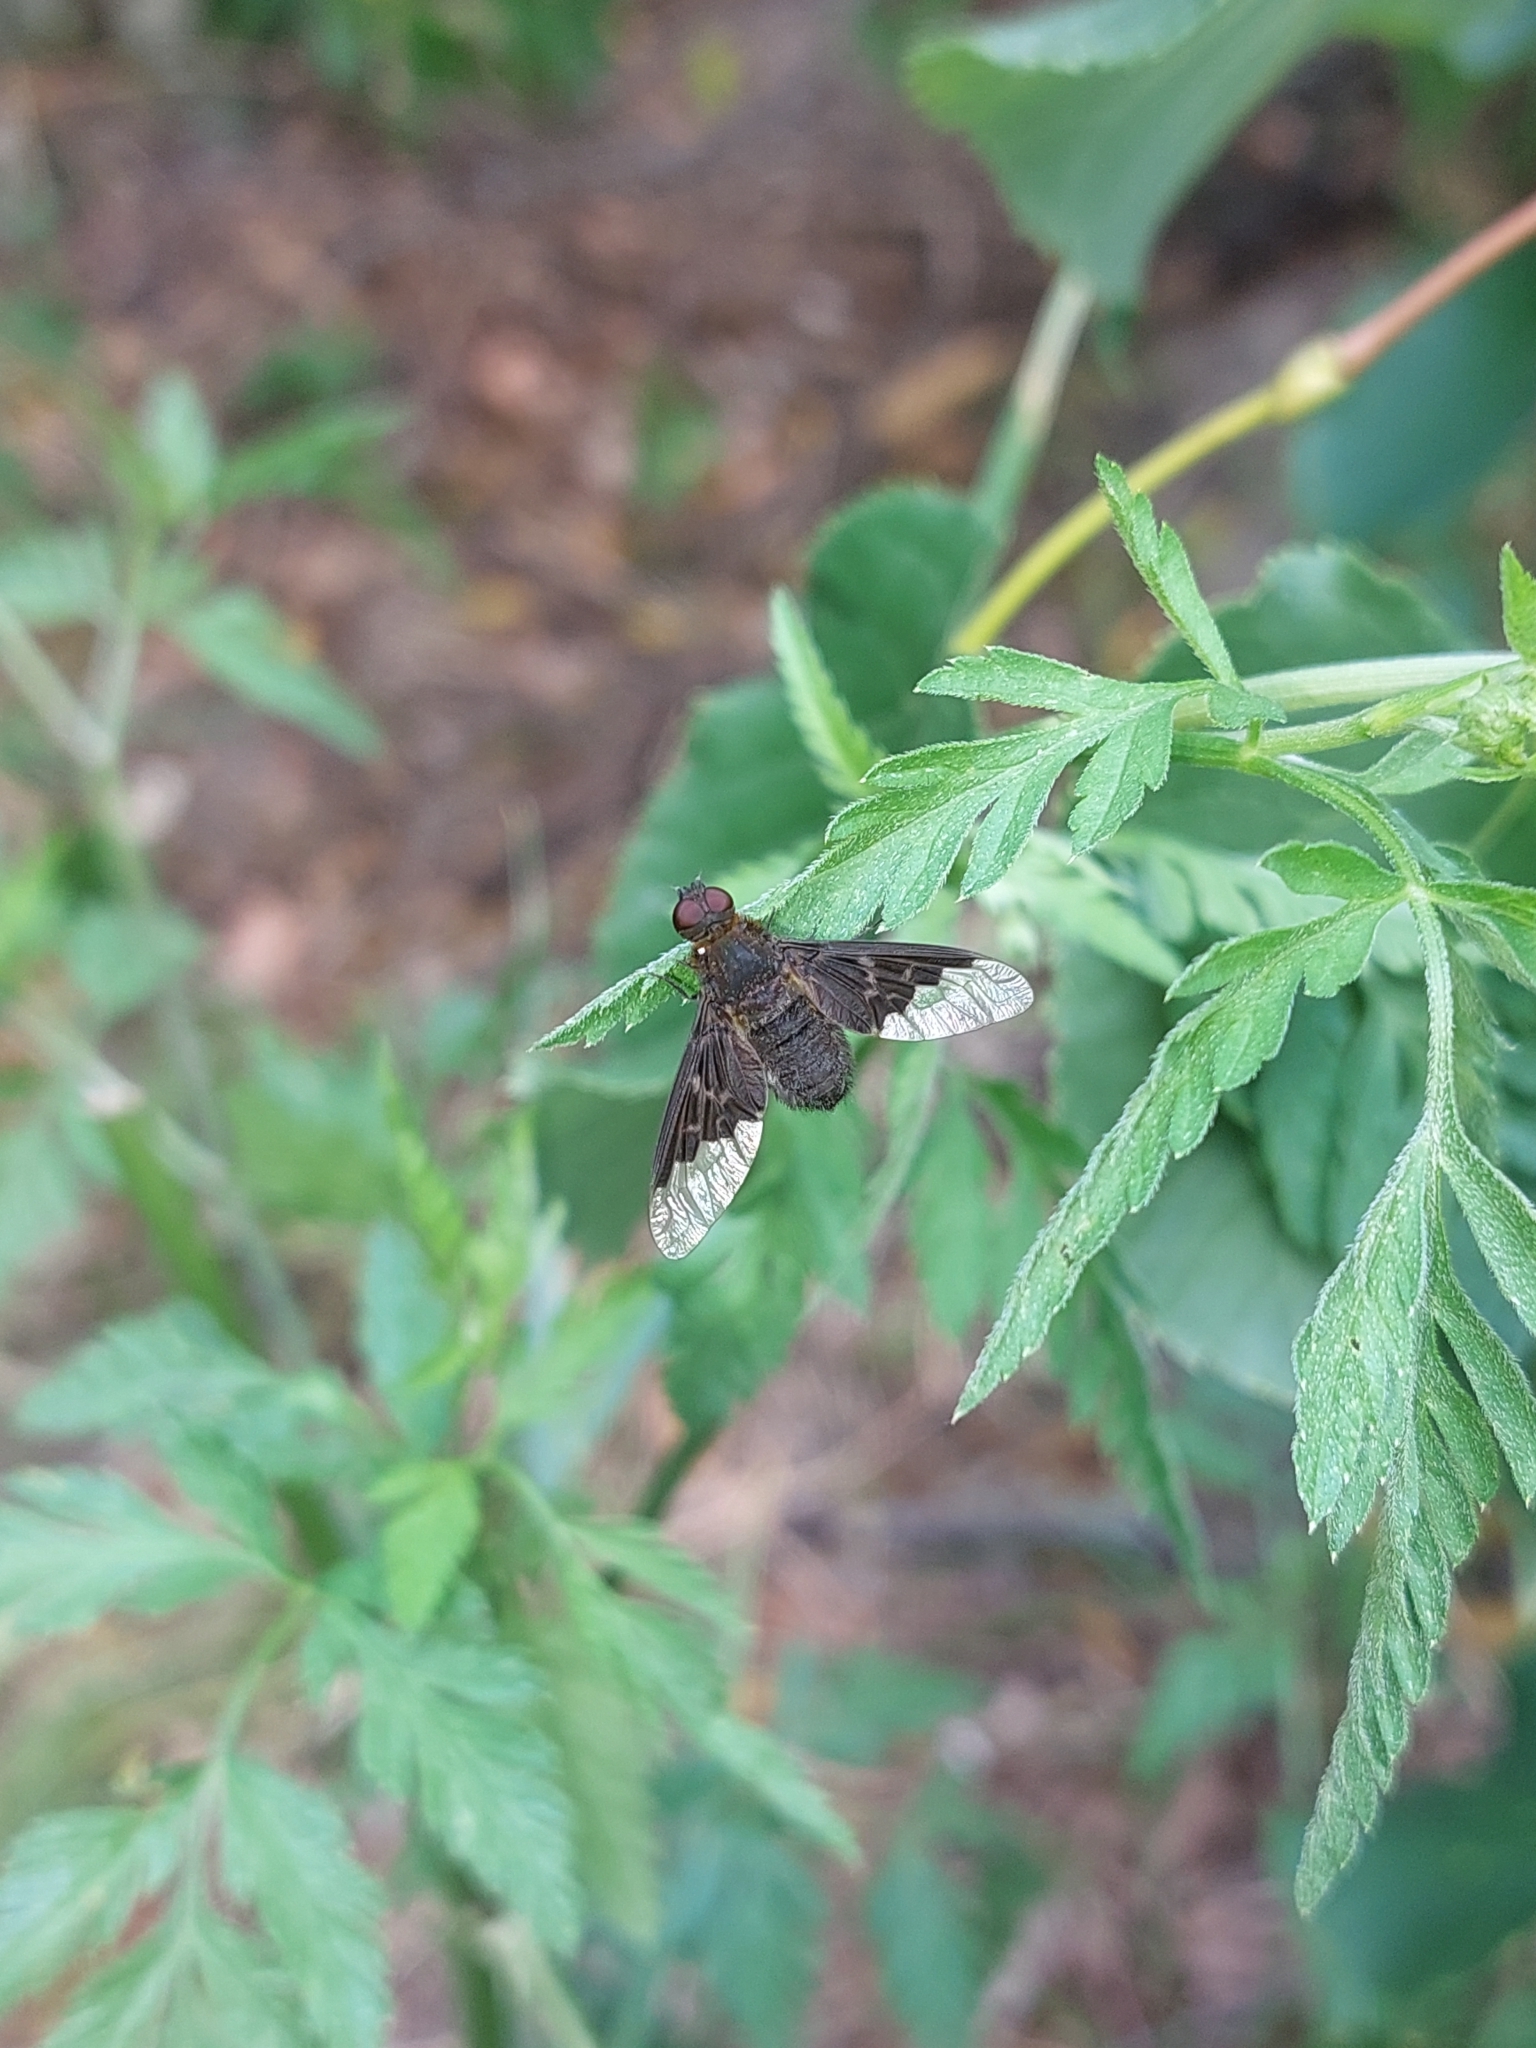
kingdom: Animalia
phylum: Arthropoda
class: Insecta
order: Diptera
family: Bombyliidae
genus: Hemipenthes
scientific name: Hemipenthes morio
